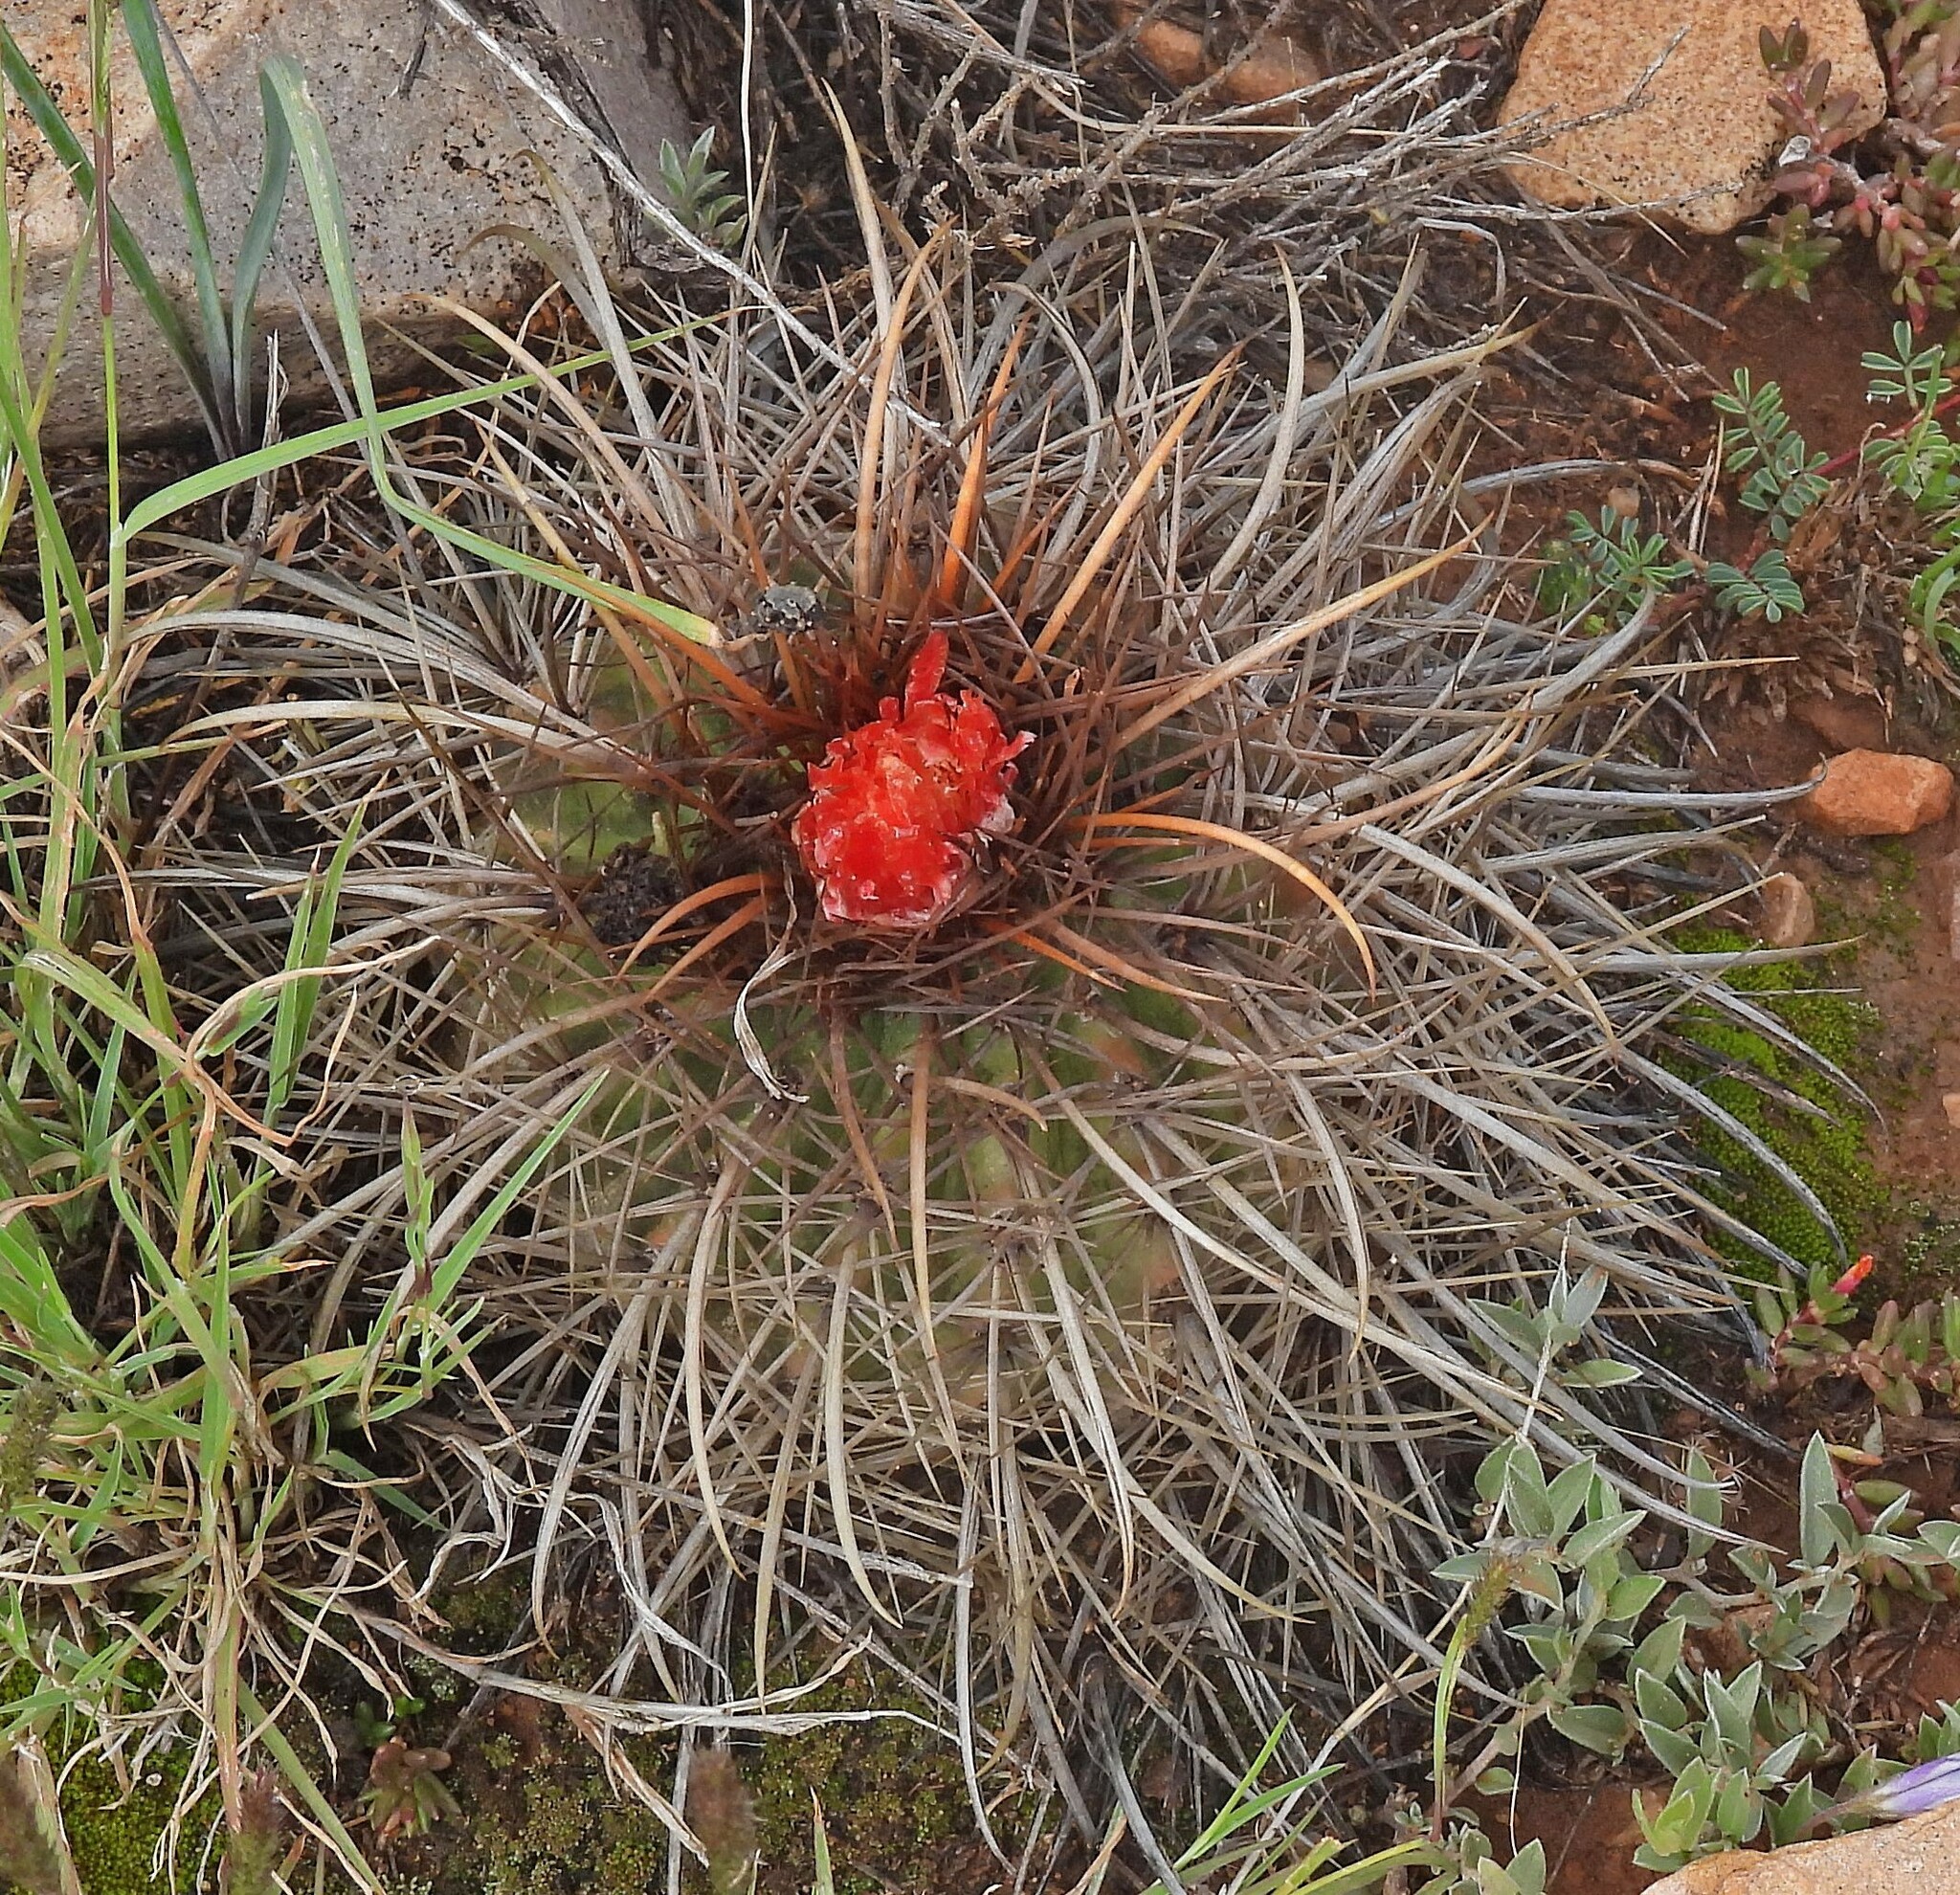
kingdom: Plantae
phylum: Tracheophyta
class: Magnoliopsida
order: Caryophyllales
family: Cactaceae
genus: Parodia
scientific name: Parodia maassii
